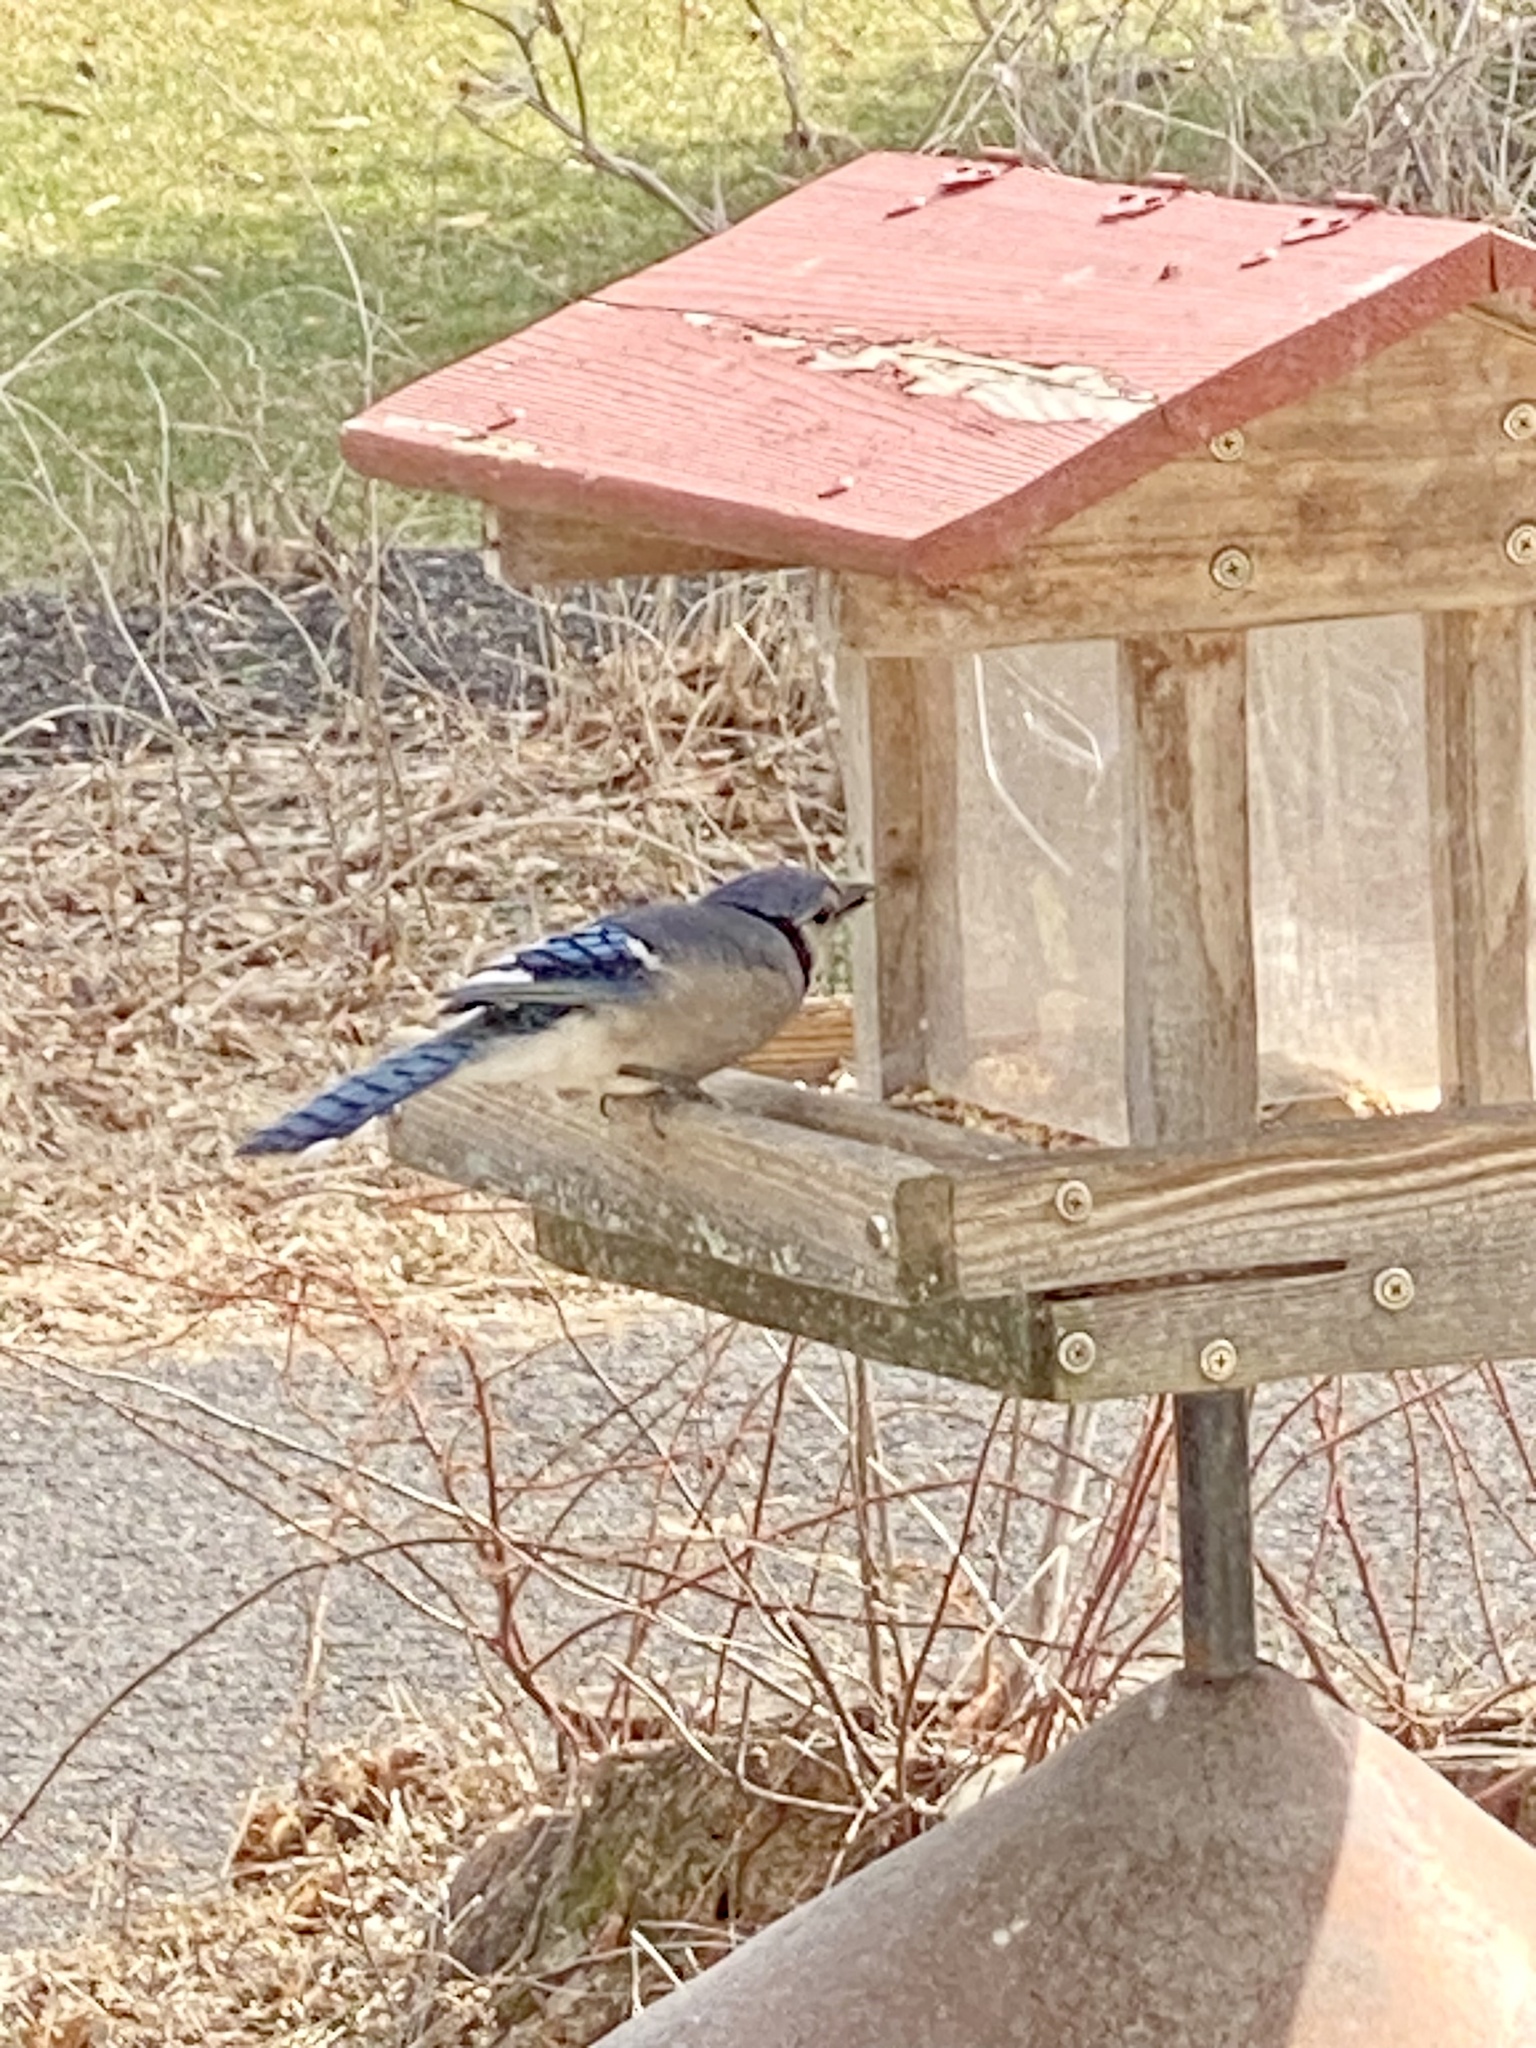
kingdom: Animalia
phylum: Chordata
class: Aves
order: Passeriformes
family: Corvidae
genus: Cyanocitta
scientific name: Cyanocitta cristata
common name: Blue jay
